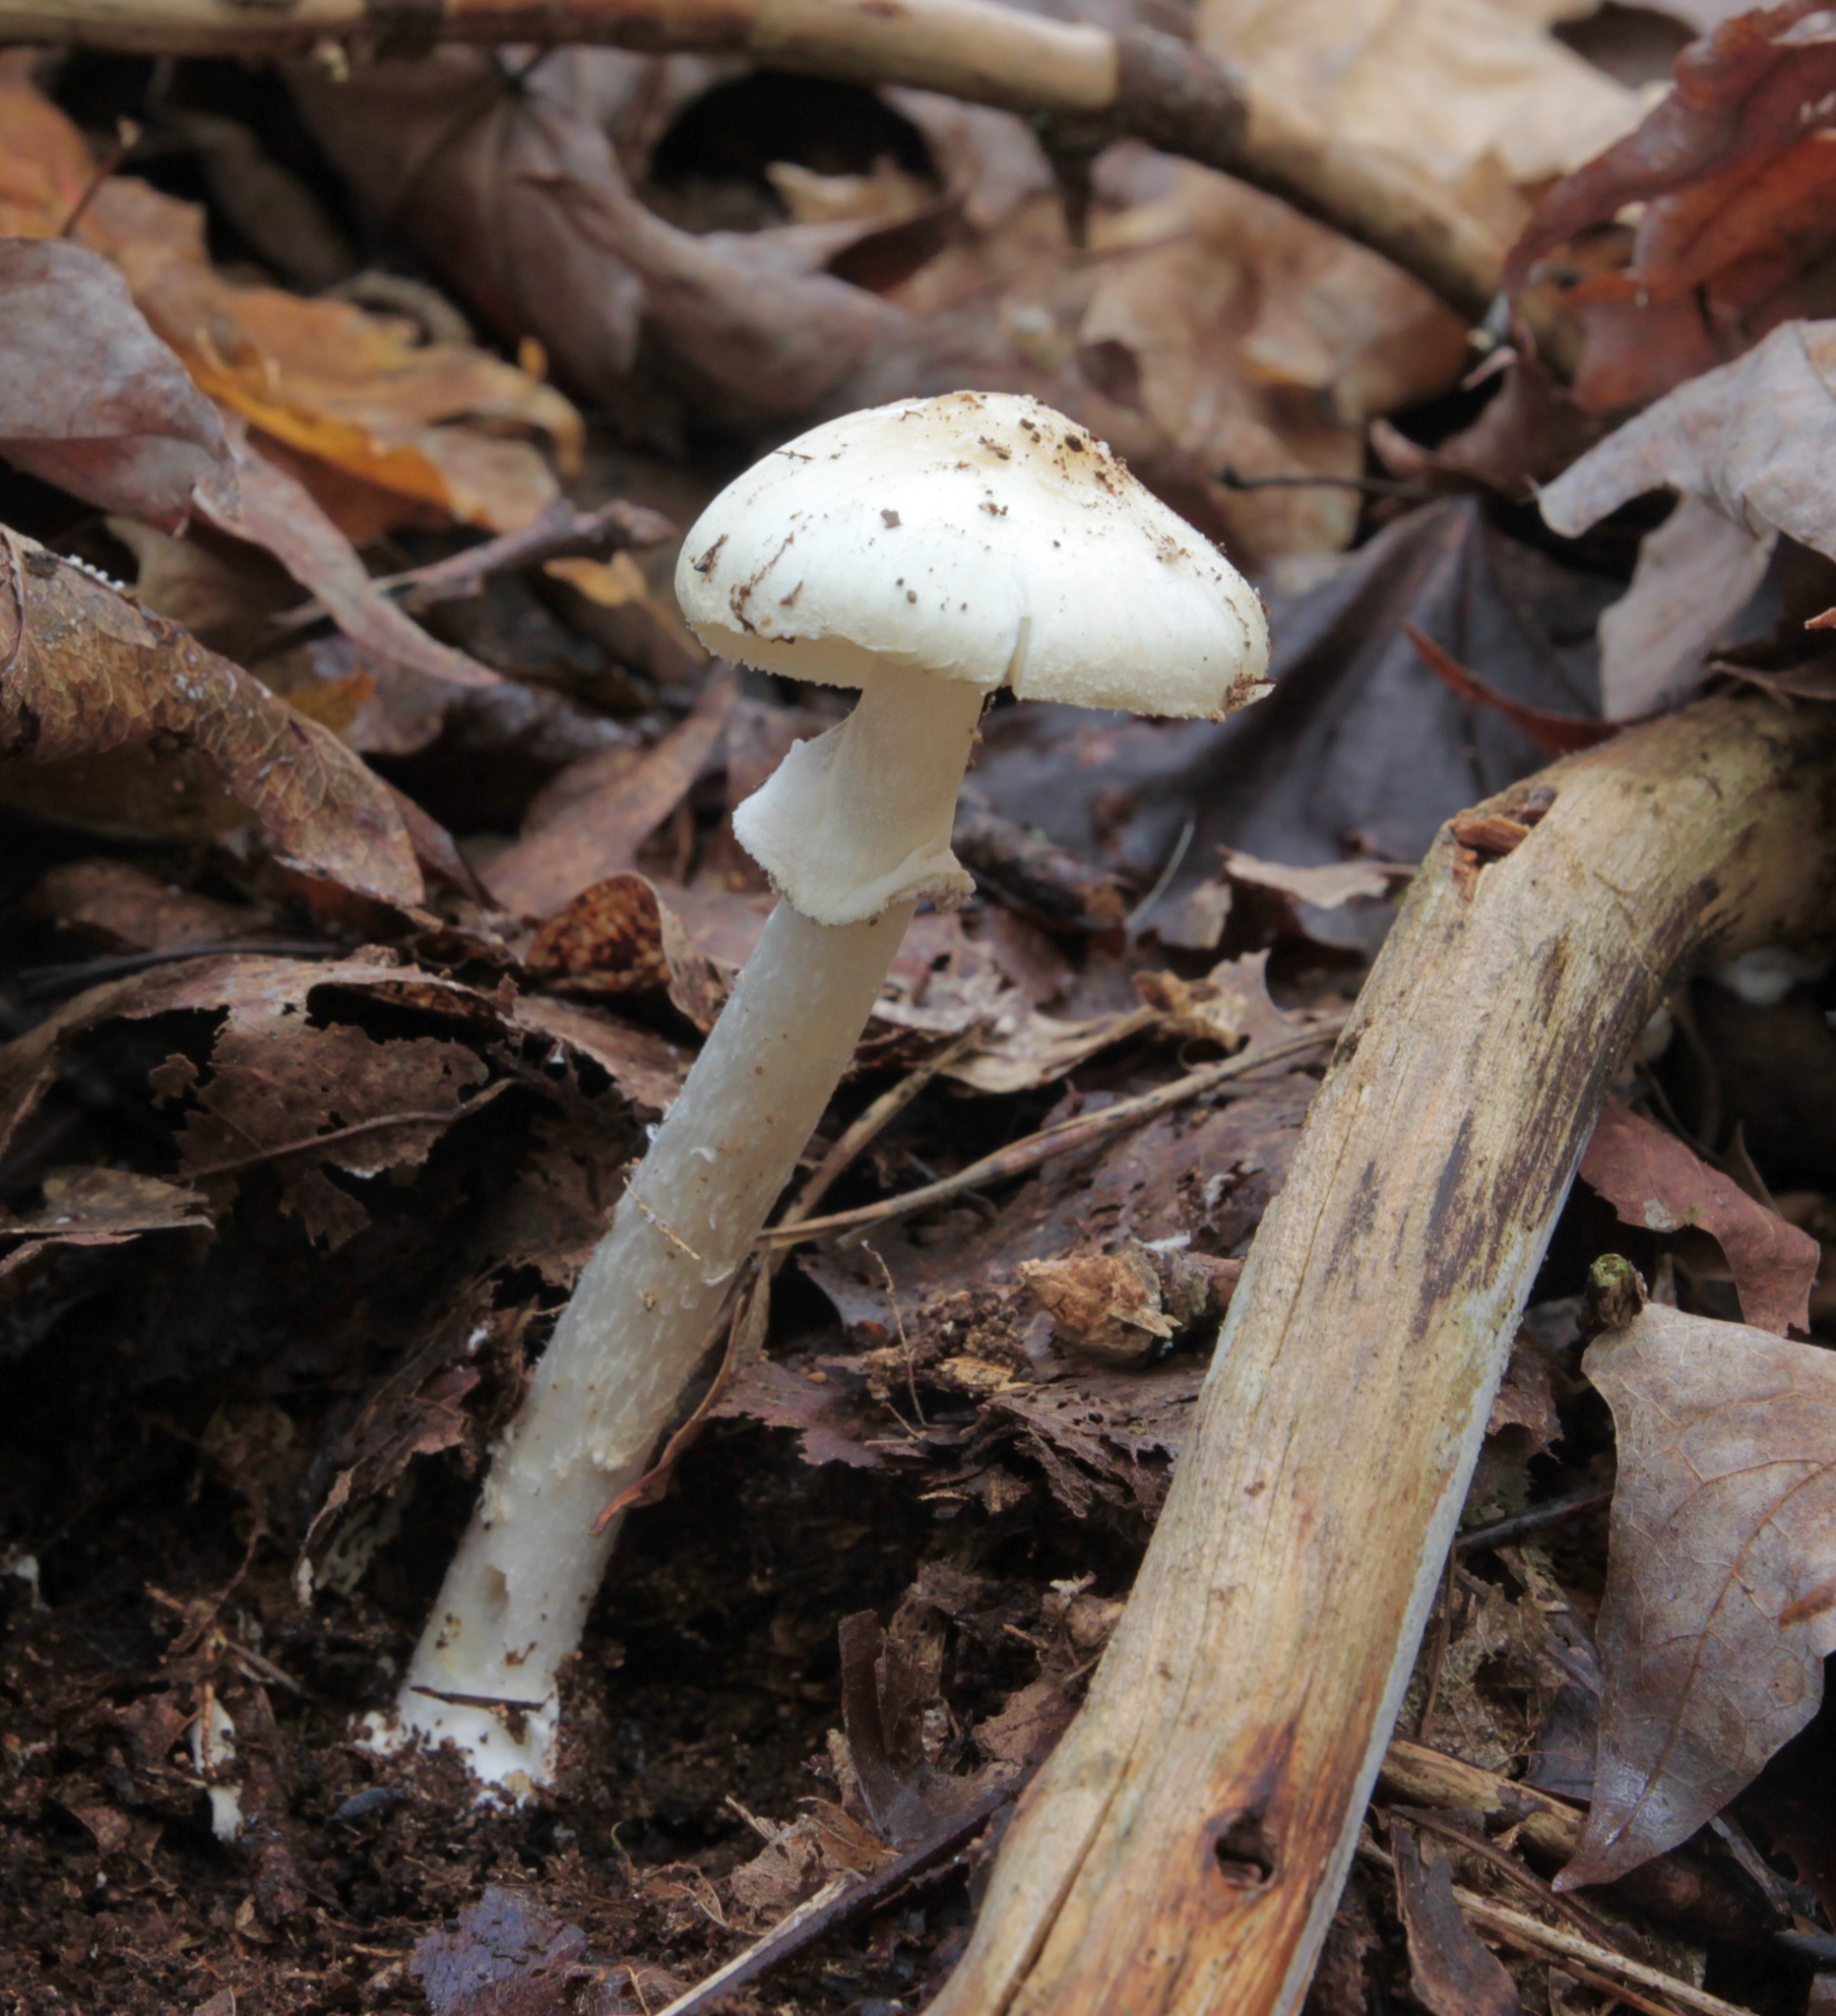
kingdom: Fungi
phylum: Basidiomycota
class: Agaricomycetes
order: Agaricales
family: Amanitaceae
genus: Amanita
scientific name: Amanita lavendula
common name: Coker's lavender staining amanita
